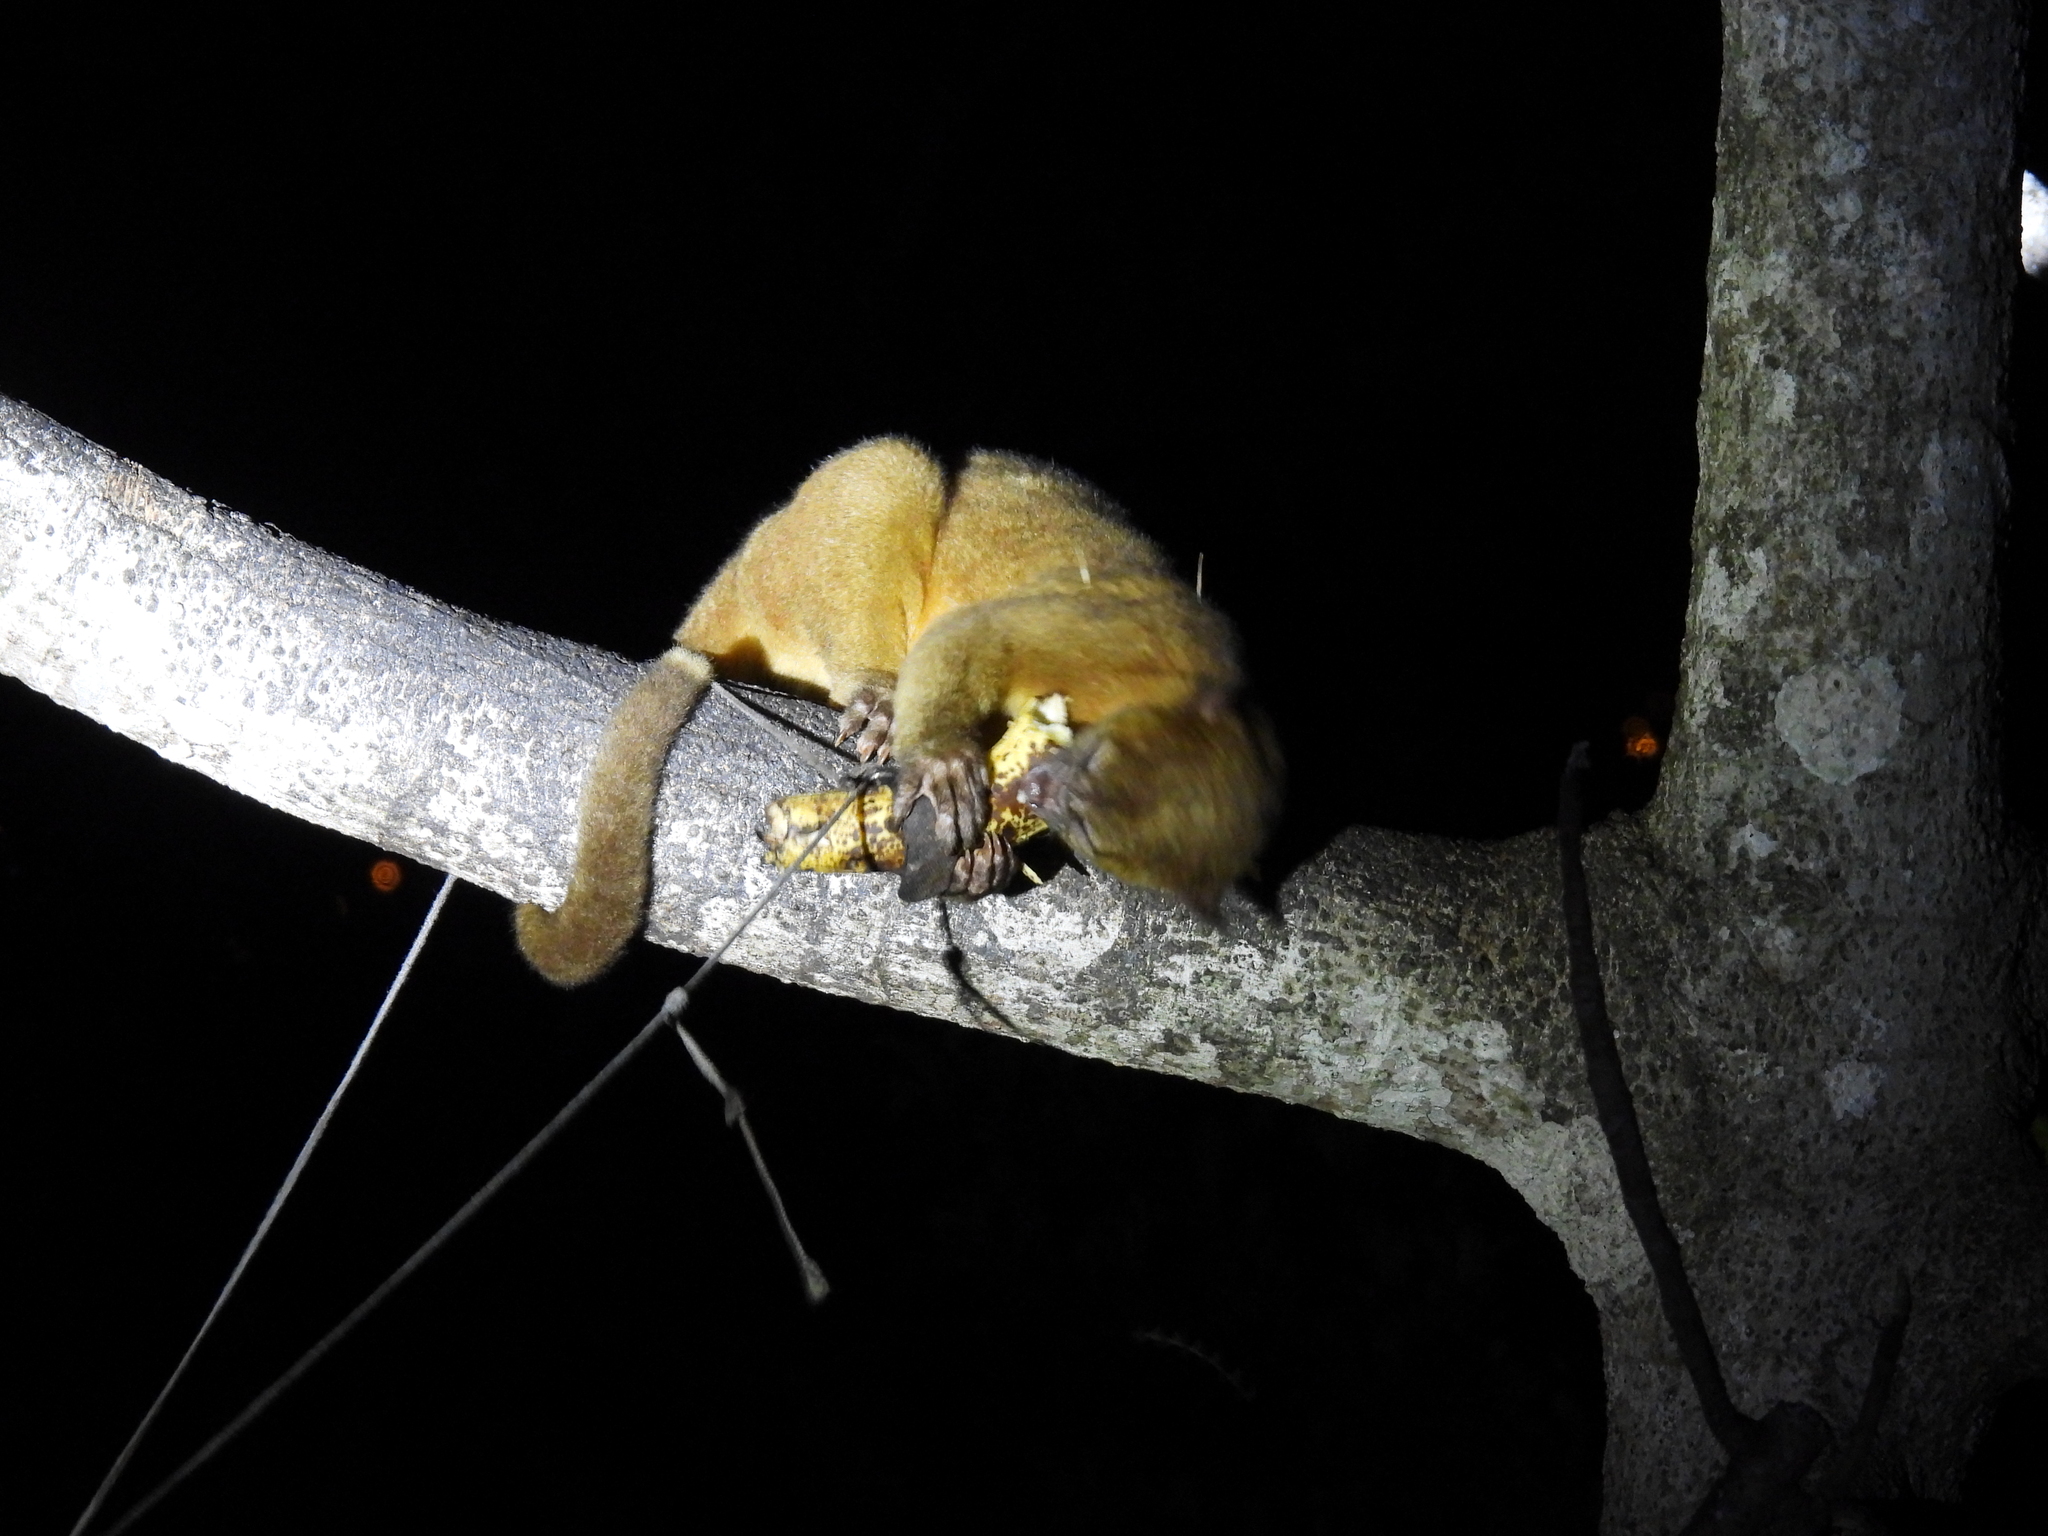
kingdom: Animalia
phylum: Chordata
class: Mammalia
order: Carnivora
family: Procyonidae
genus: Potos
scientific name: Potos flavus
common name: Kinkajou
